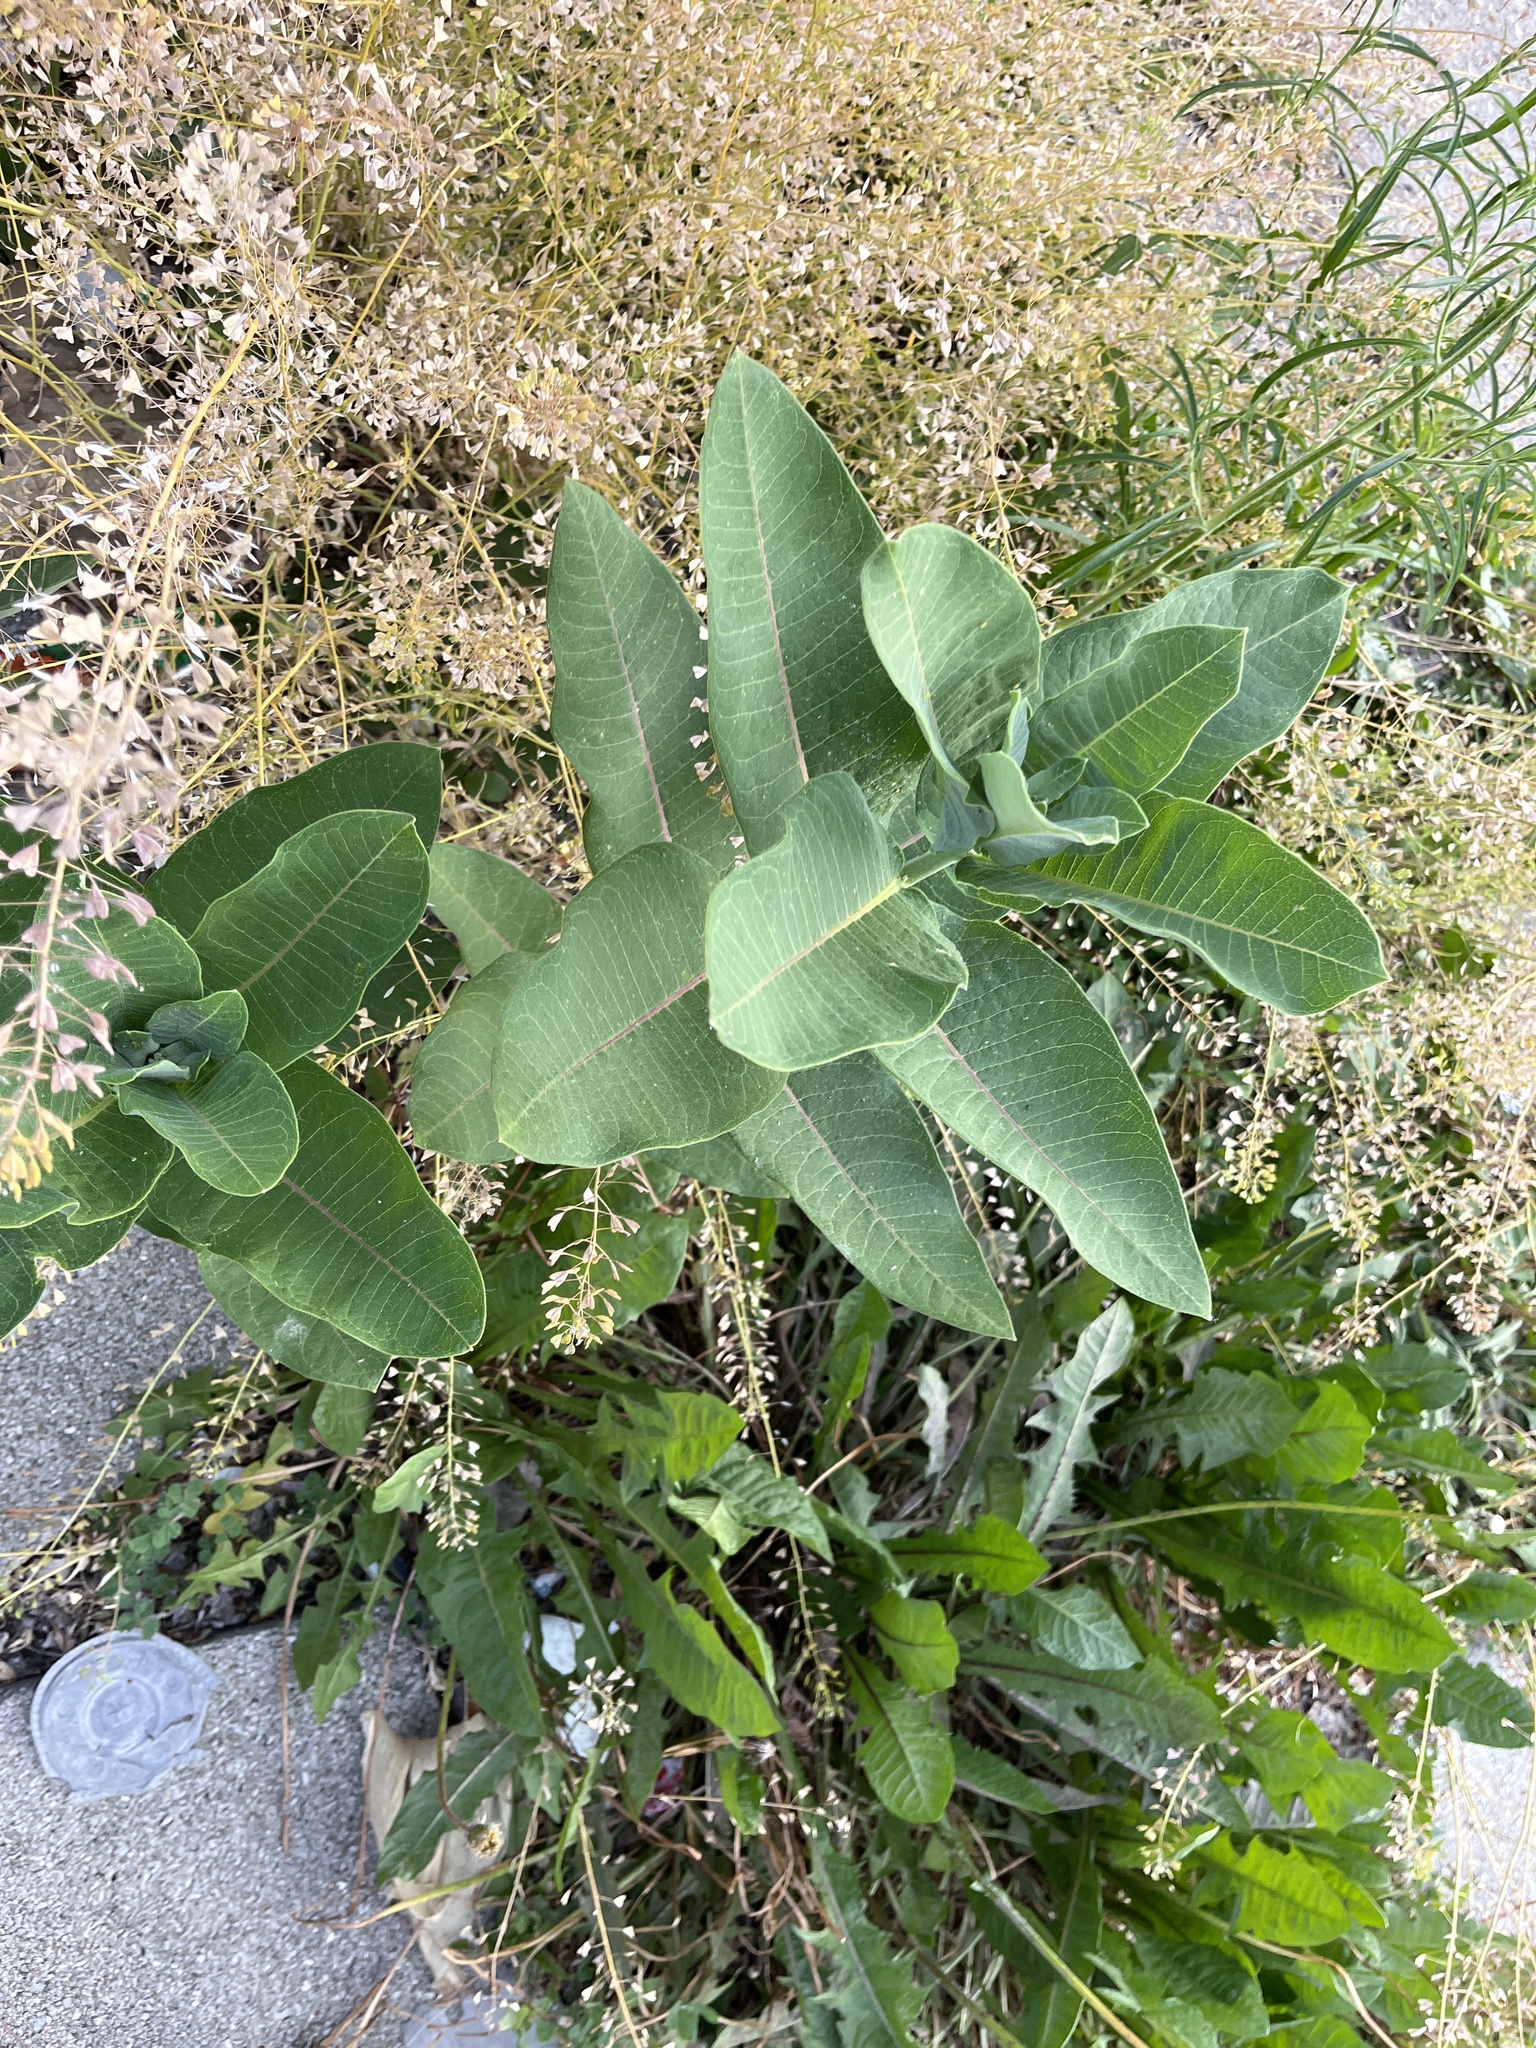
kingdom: Plantae
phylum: Tracheophyta
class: Magnoliopsida
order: Gentianales
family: Apocynaceae
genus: Asclepias
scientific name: Asclepias syriaca
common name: Common milkweed
